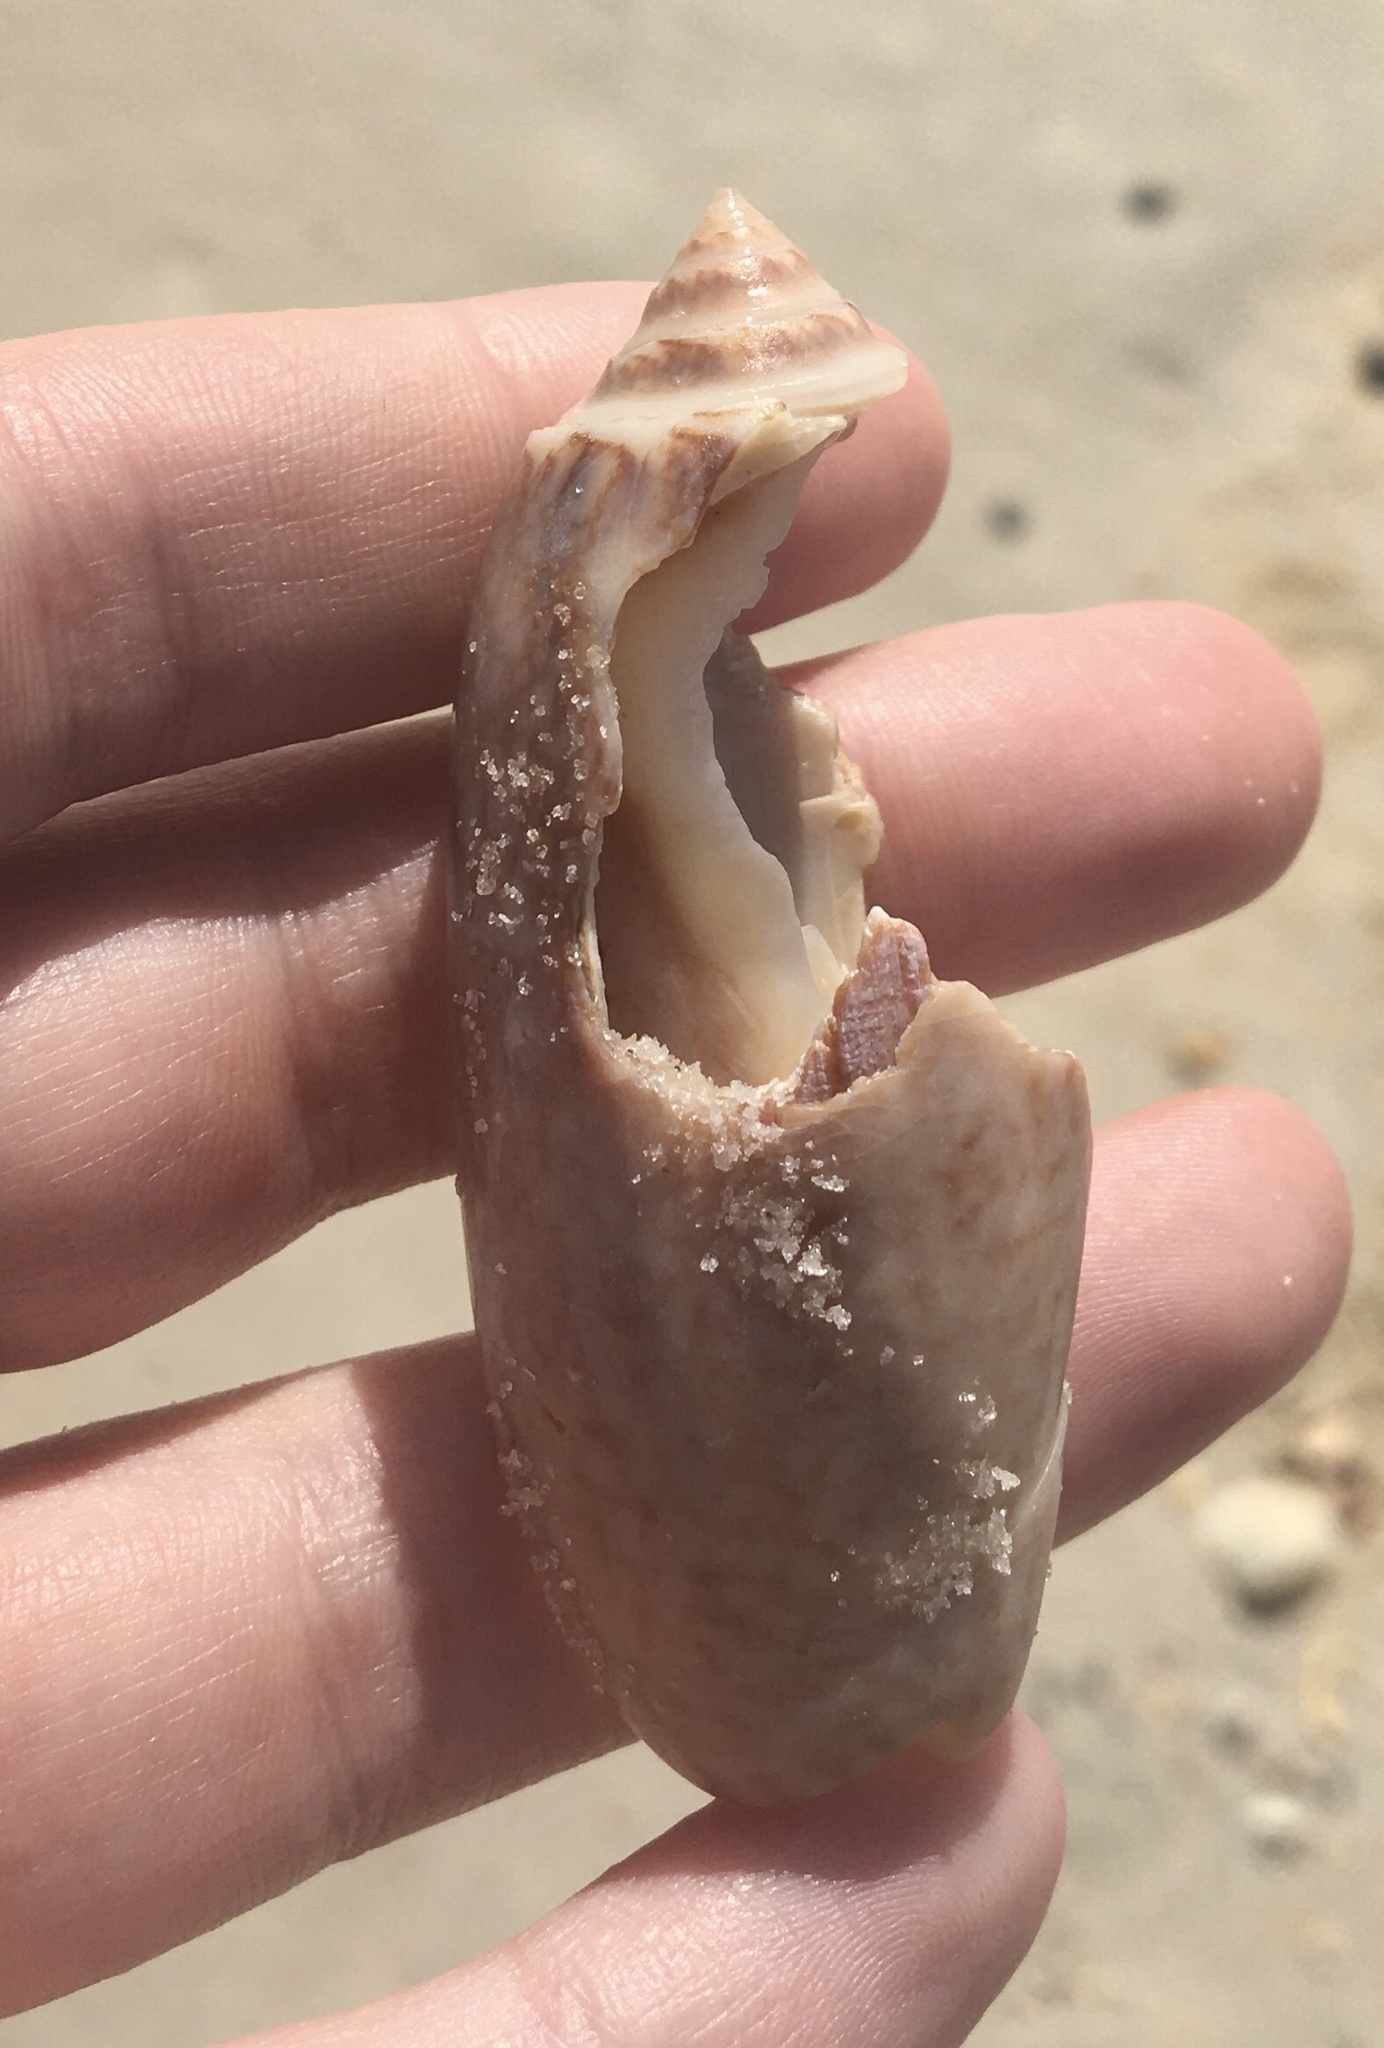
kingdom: Animalia
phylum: Mollusca
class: Gastropoda
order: Neogastropoda
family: Olividae
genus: Oliva
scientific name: Oliva sayana
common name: Lettered olive
